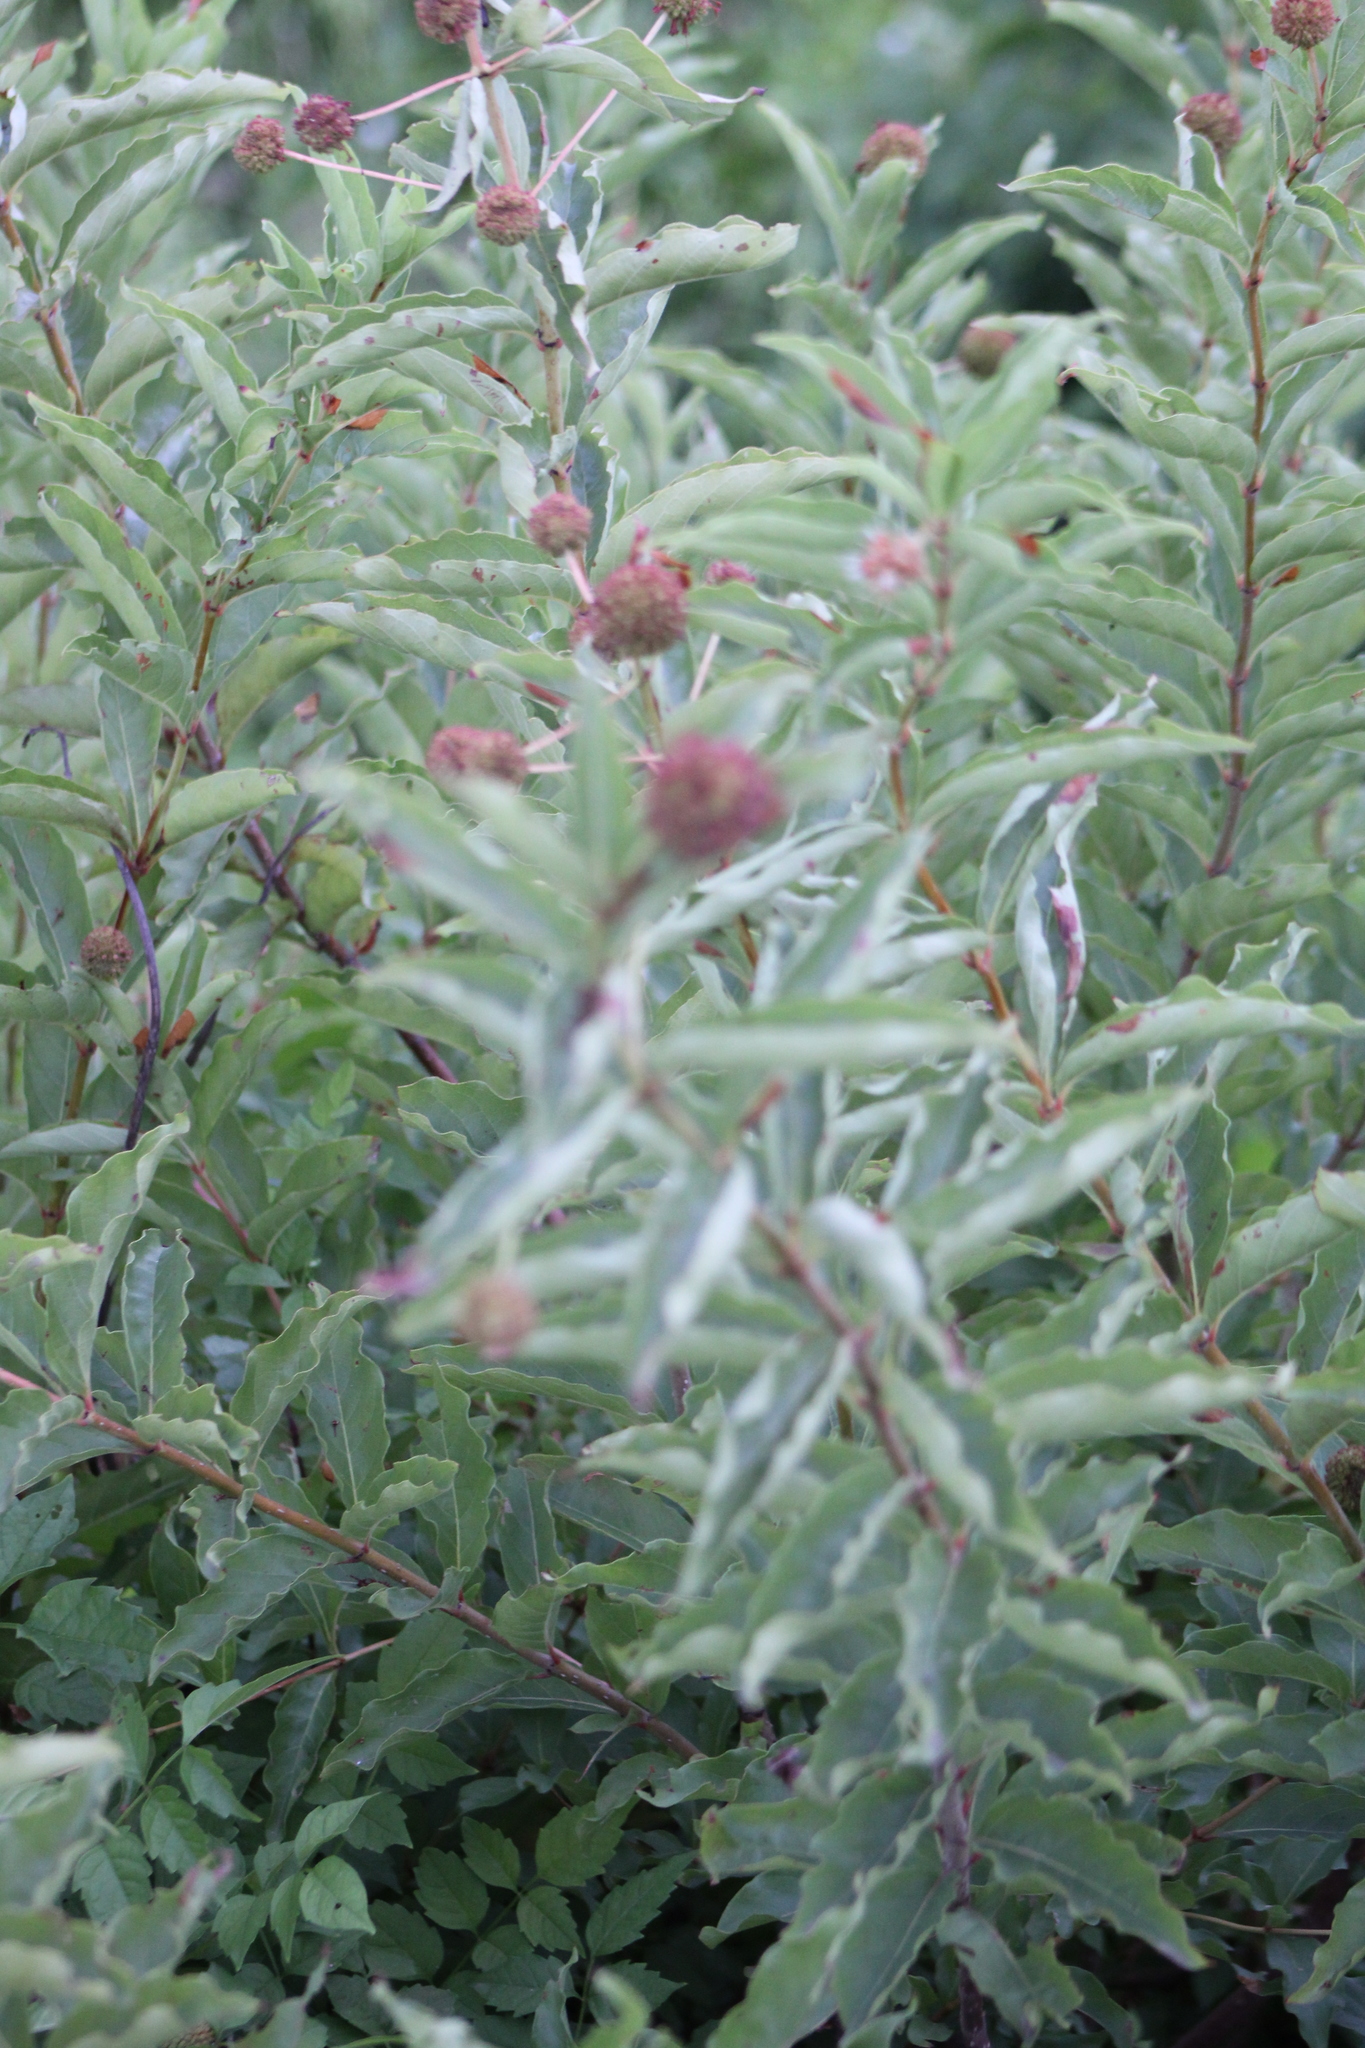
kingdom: Plantae
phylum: Tracheophyta
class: Magnoliopsida
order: Gentianales
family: Rubiaceae
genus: Cephalanthus
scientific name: Cephalanthus occidentalis
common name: Button-willow
